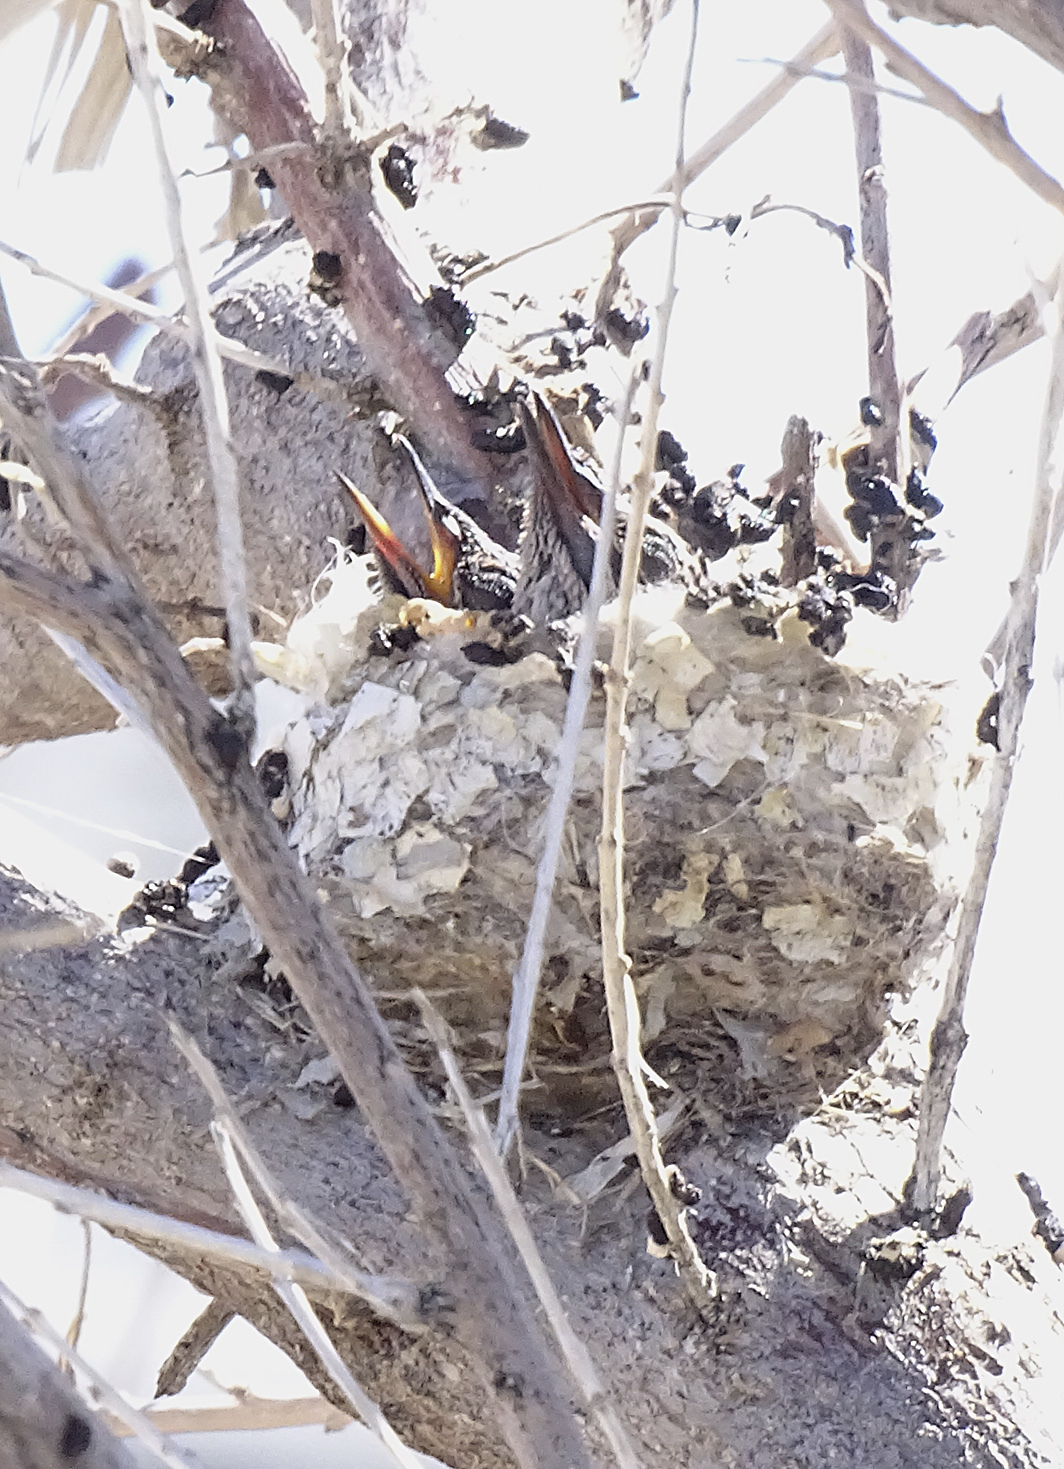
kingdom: Animalia
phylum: Chordata
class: Aves
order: Apodiformes
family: Trochilidae
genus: Calypte
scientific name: Calypte anna
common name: Anna's hummingbird
